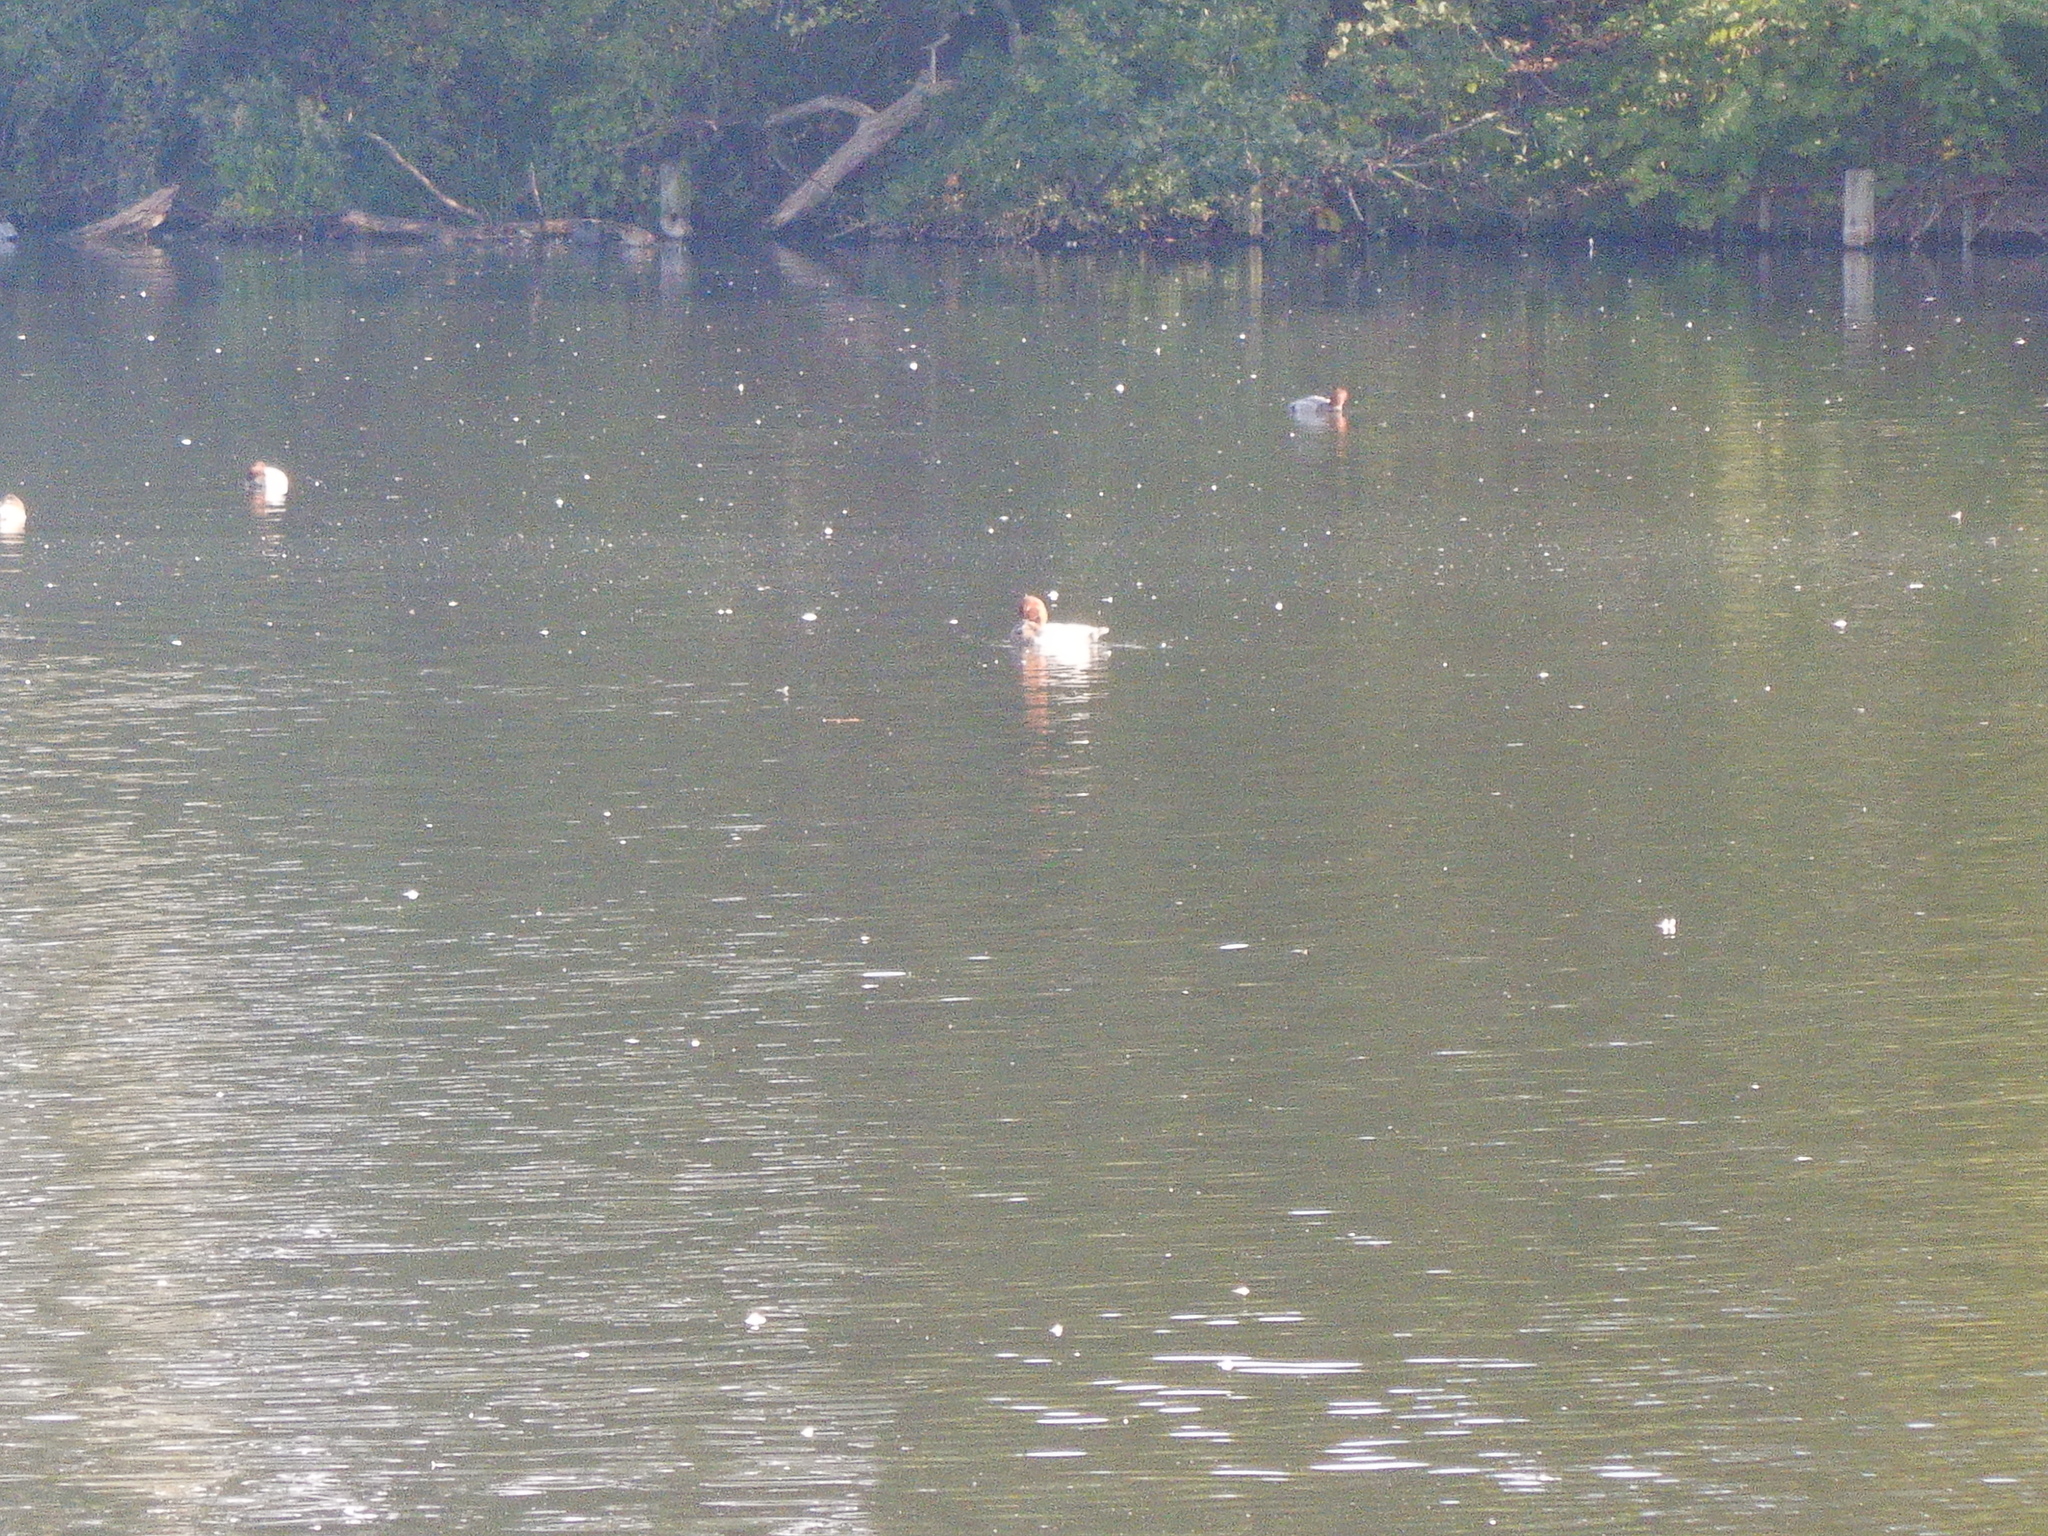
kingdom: Animalia
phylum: Chordata
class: Aves
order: Anseriformes
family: Anatidae
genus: Aythya
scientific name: Aythya ferina
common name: Common pochard
